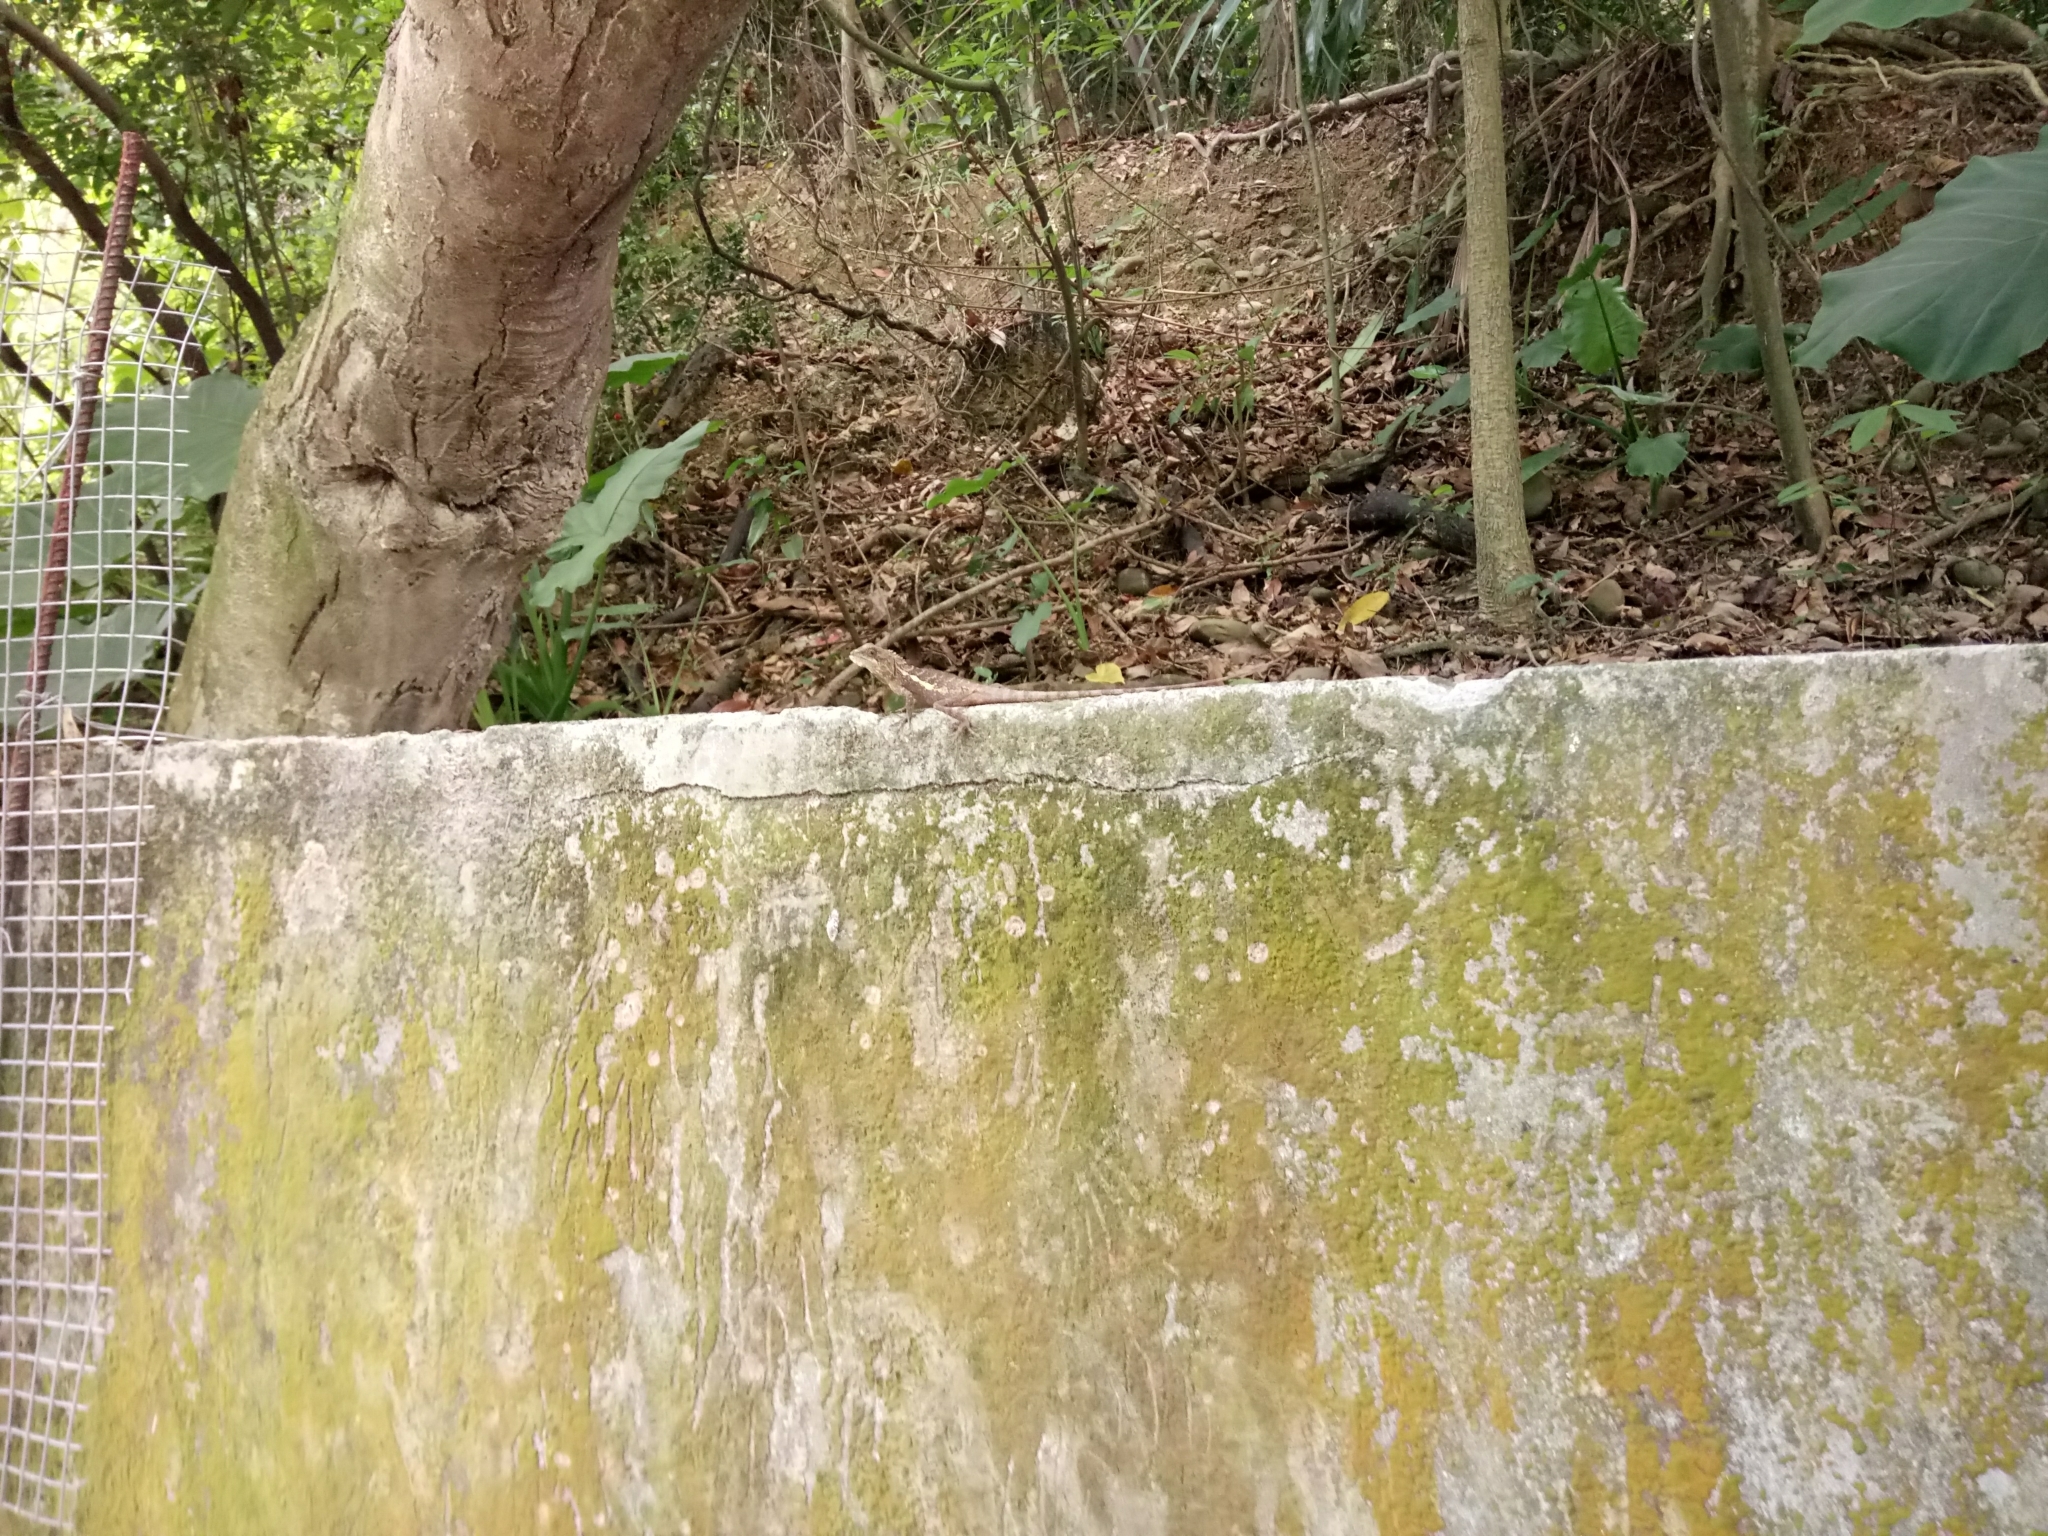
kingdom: Animalia
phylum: Chordata
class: Squamata
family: Agamidae
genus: Diploderma
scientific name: Diploderma swinhonis
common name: Taiwan japalure
